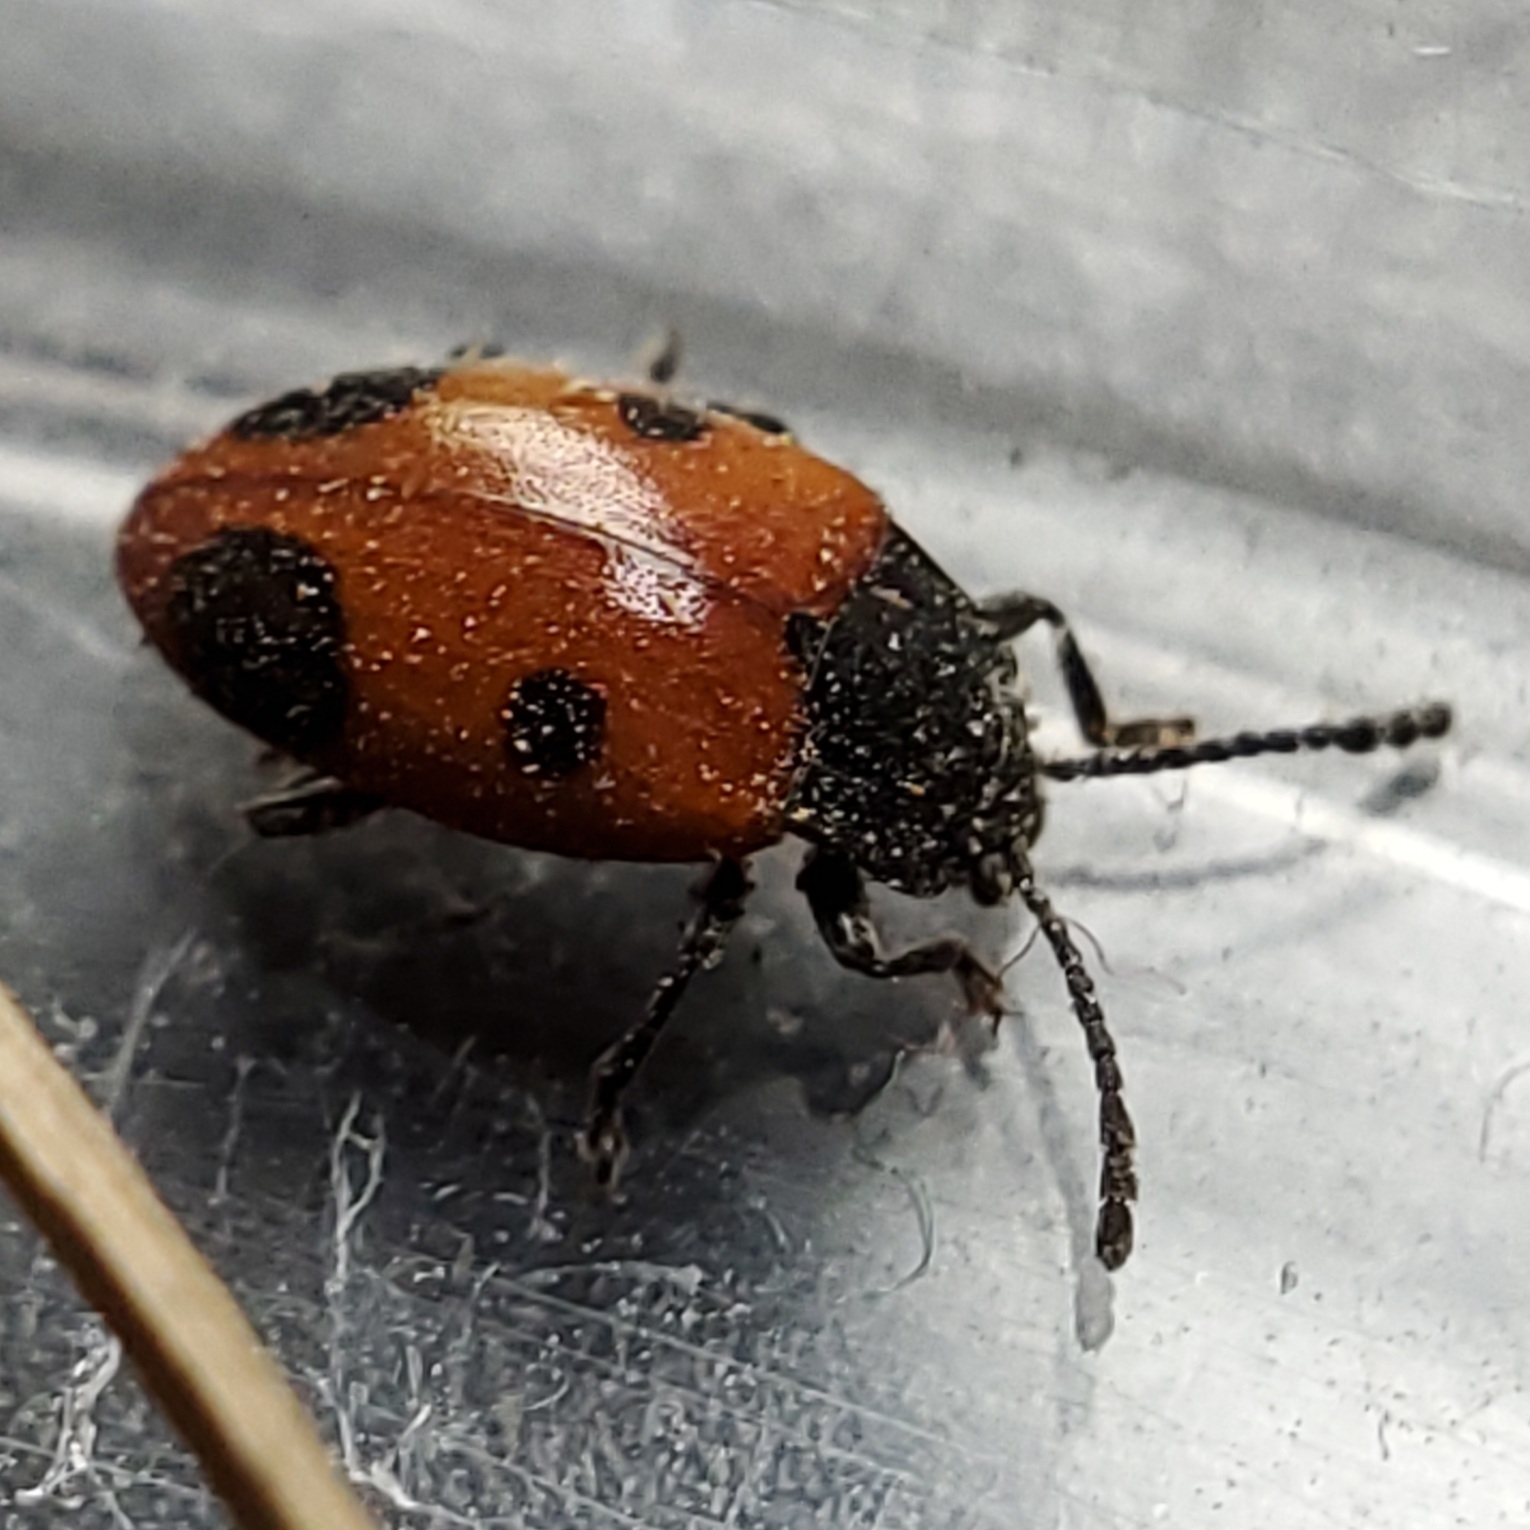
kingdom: Animalia
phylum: Arthropoda
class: Insecta
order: Coleoptera
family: Endomychidae
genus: Endomychus
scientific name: Endomychus biguttatus
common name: Handsome fungus beetle
